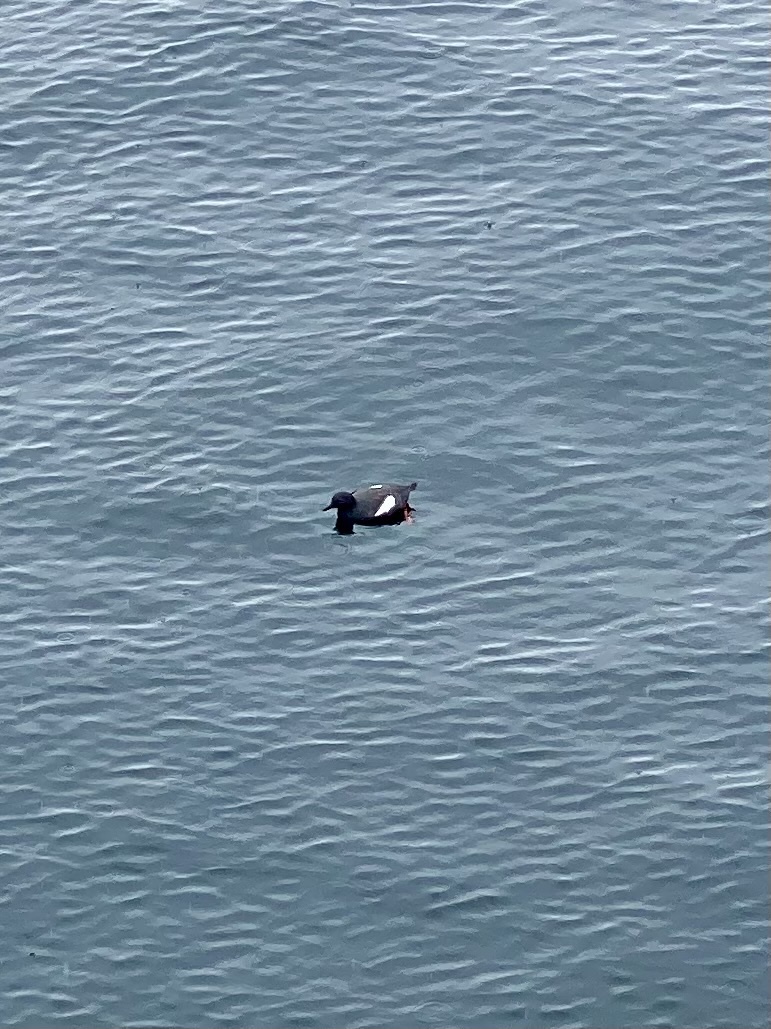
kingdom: Animalia
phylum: Chordata
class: Aves
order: Charadriiformes
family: Alcidae
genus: Cepphus
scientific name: Cepphus columba
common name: Pigeon guillemot
